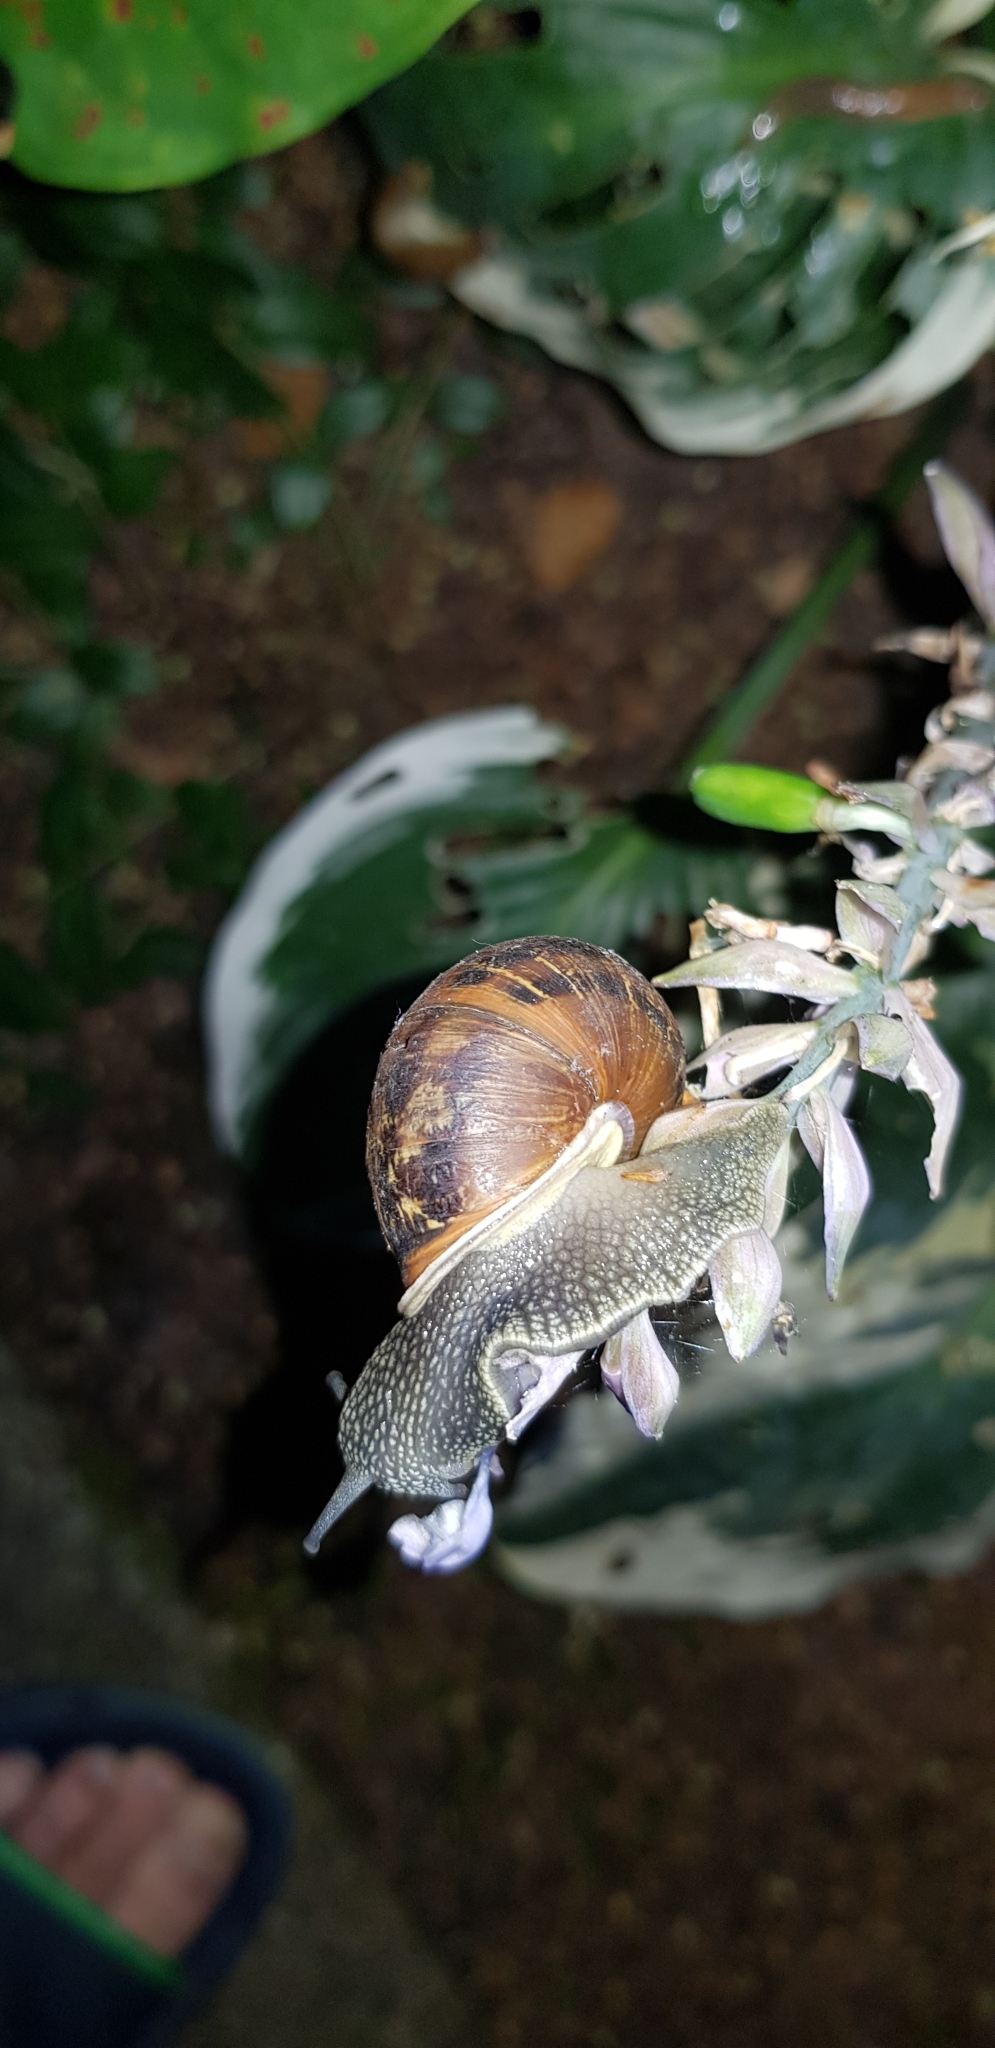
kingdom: Animalia
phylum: Mollusca
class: Gastropoda
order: Stylommatophora
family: Helicidae
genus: Cornu
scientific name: Cornu aspersum
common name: Brown garden snail
